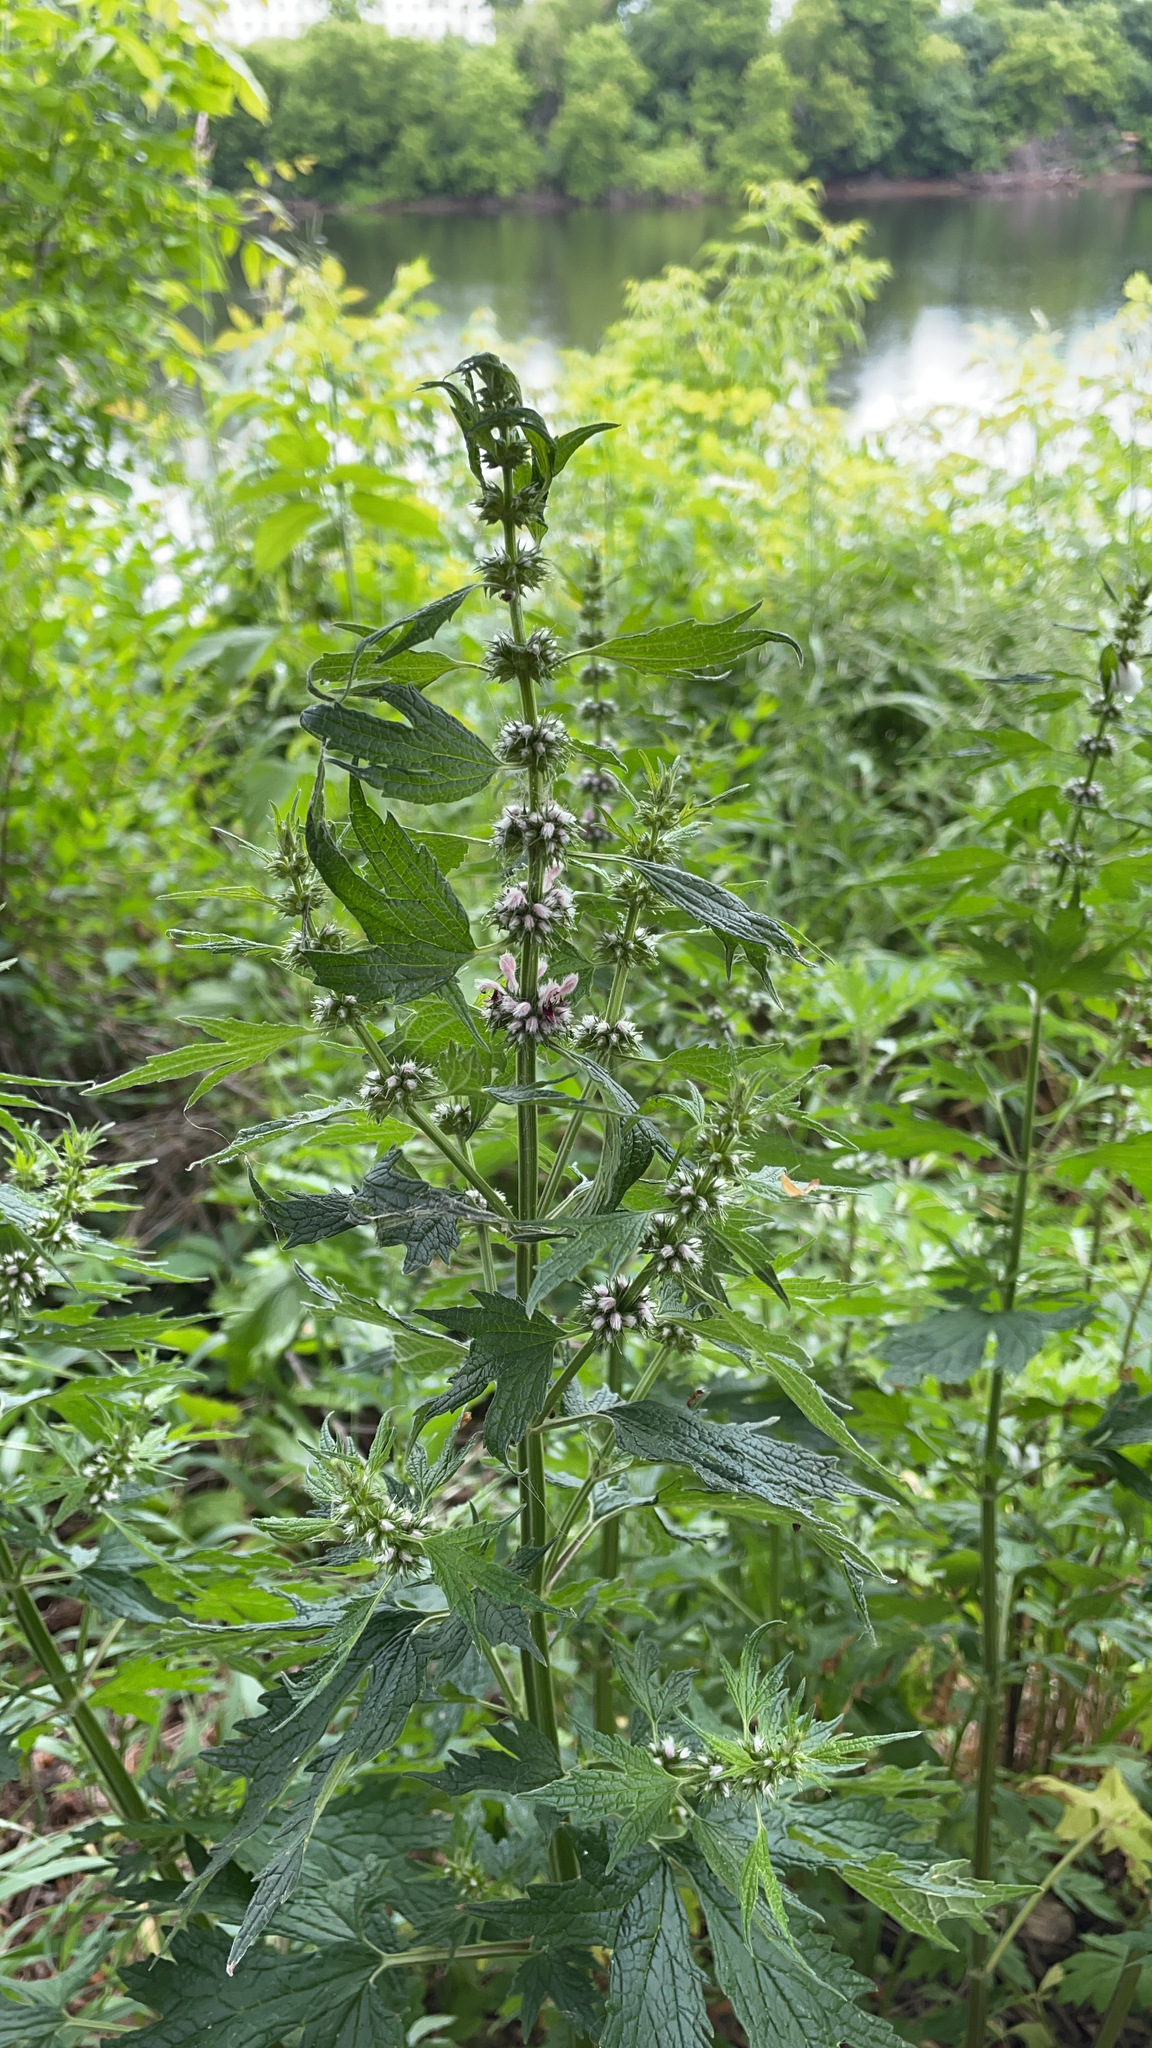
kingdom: Plantae
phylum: Tracheophyta
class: Magnoliopsida
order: Lamiales
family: Lamiaceae
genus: Leonurus
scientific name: Leonurus cardiaca
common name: Motherwort
